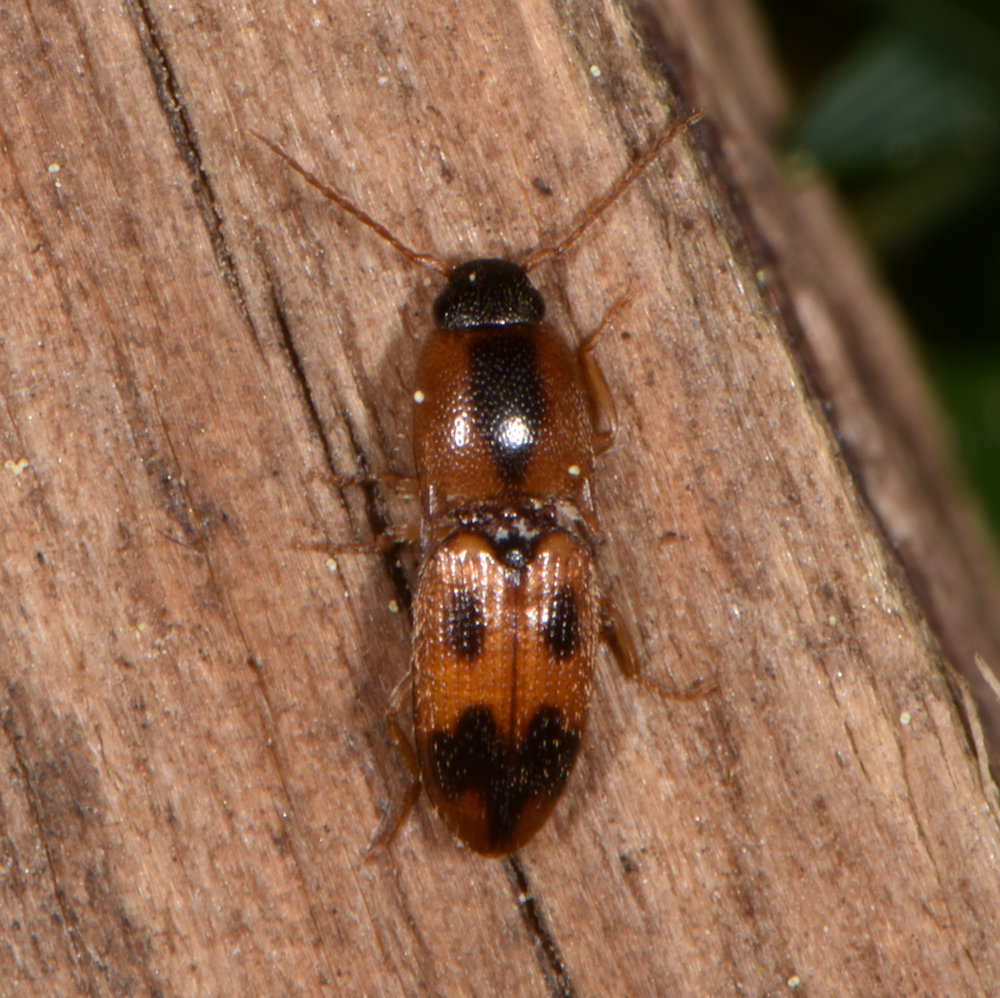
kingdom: Animalia
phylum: Arthropoda
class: Insecta
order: Coleoptera
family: Elateridae
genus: Aeolus
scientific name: Aeolus mellillus
